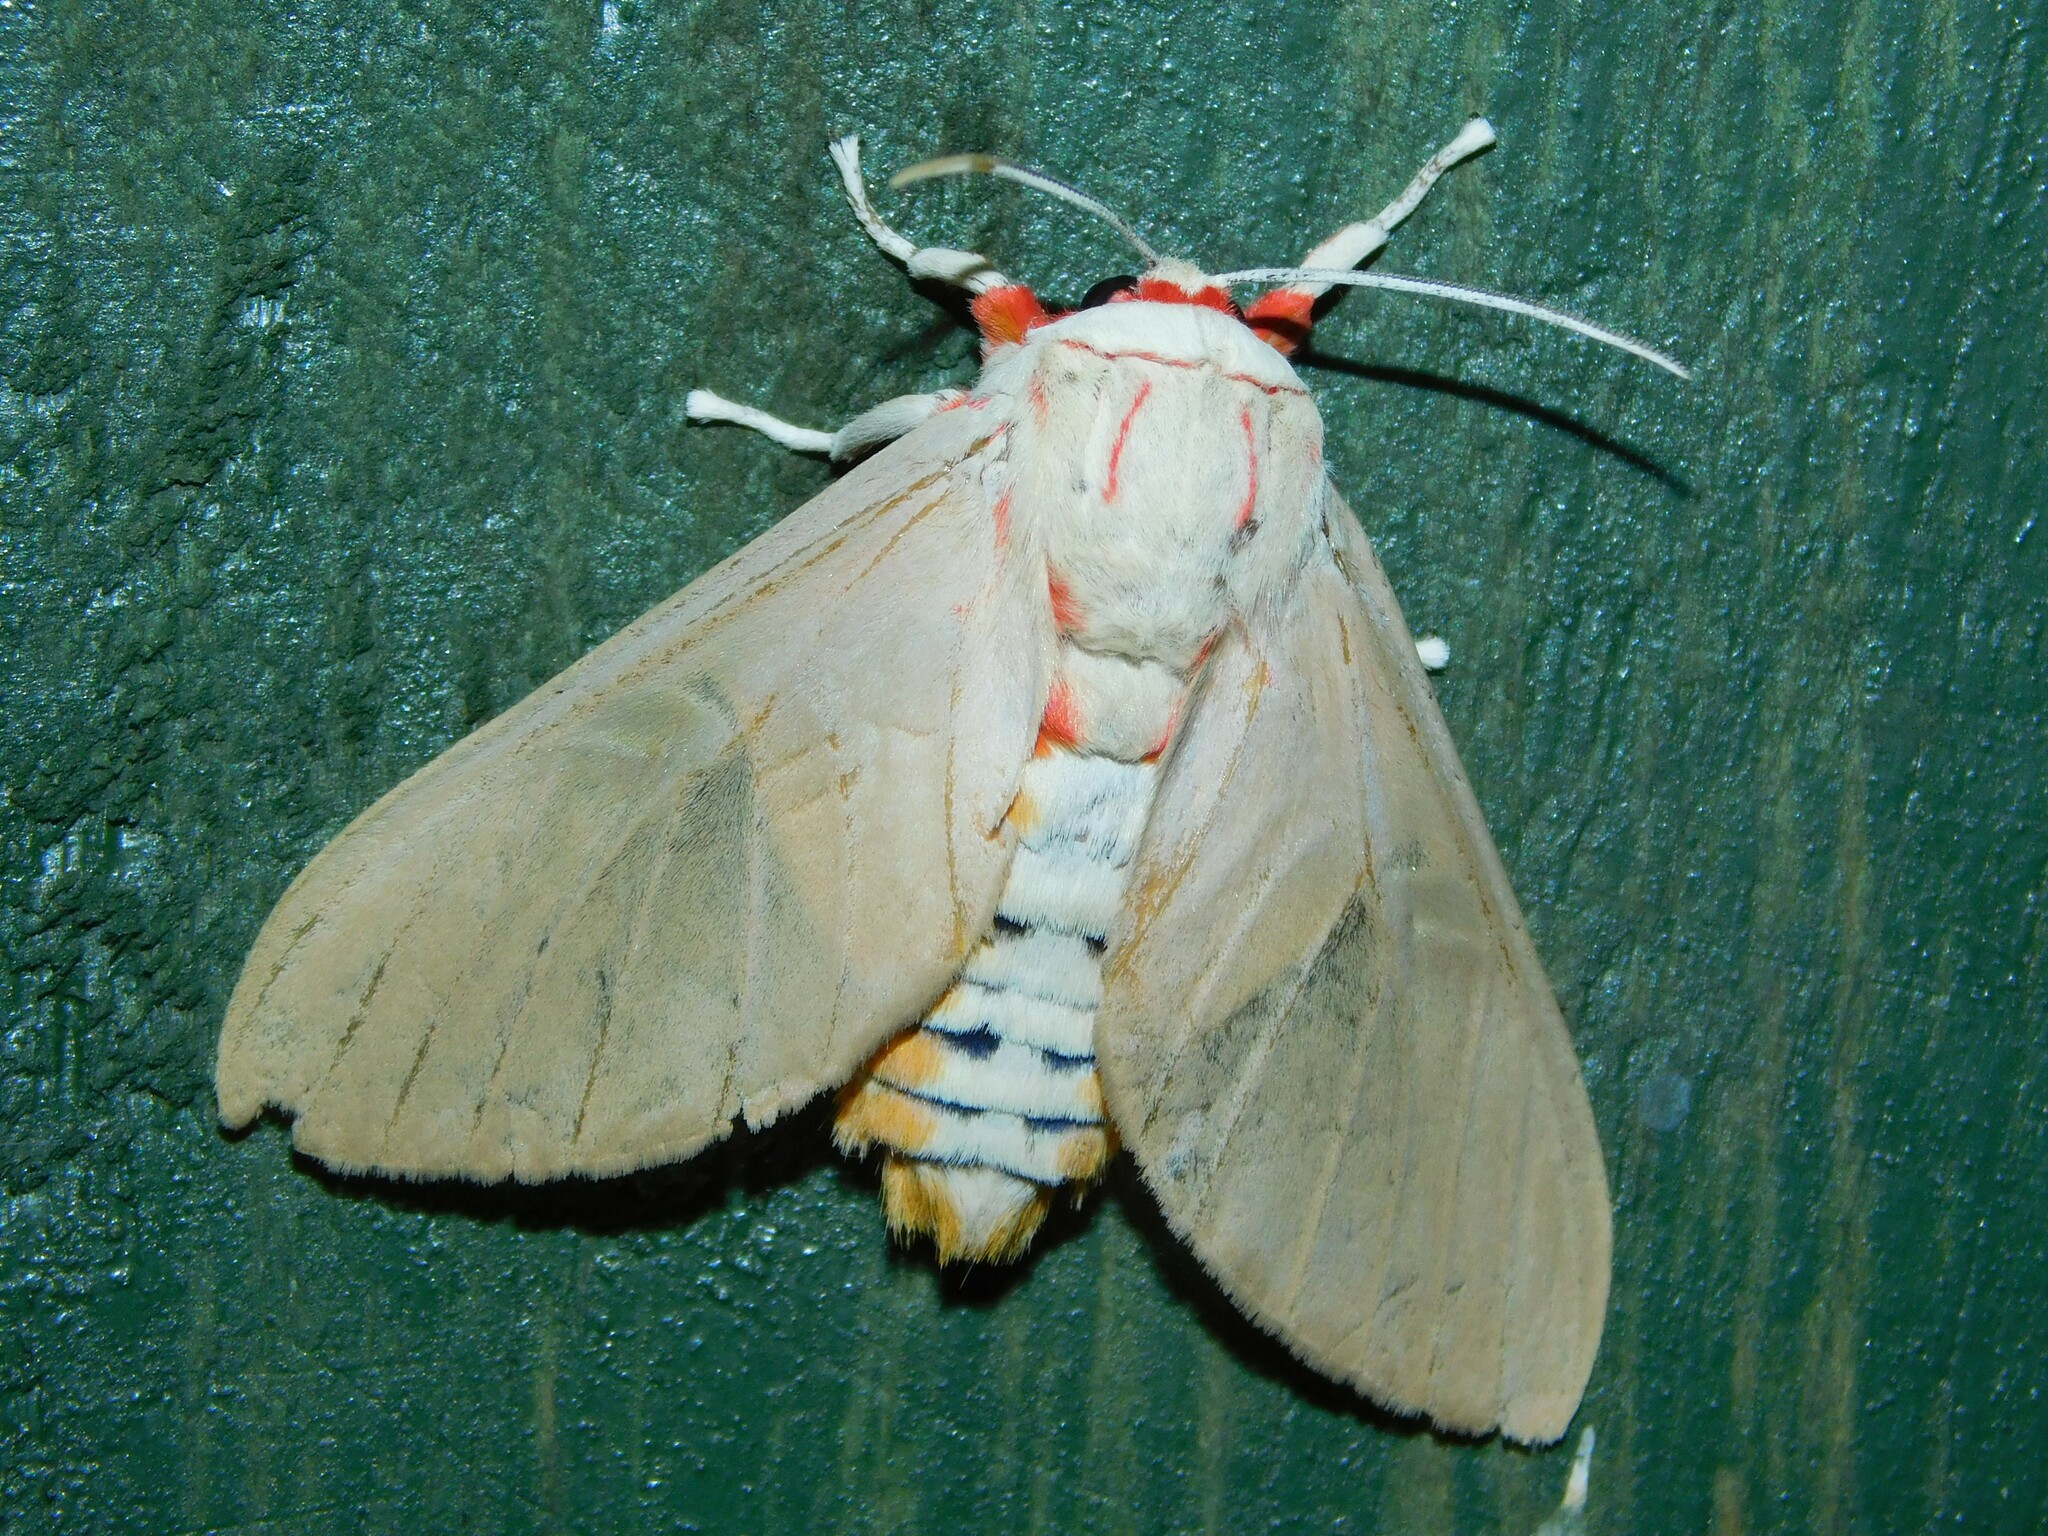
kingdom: Animalia
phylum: Arthropoda
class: Insecta
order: Lepidoptera
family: Erebidae
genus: Balacra
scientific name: Balacra herona
